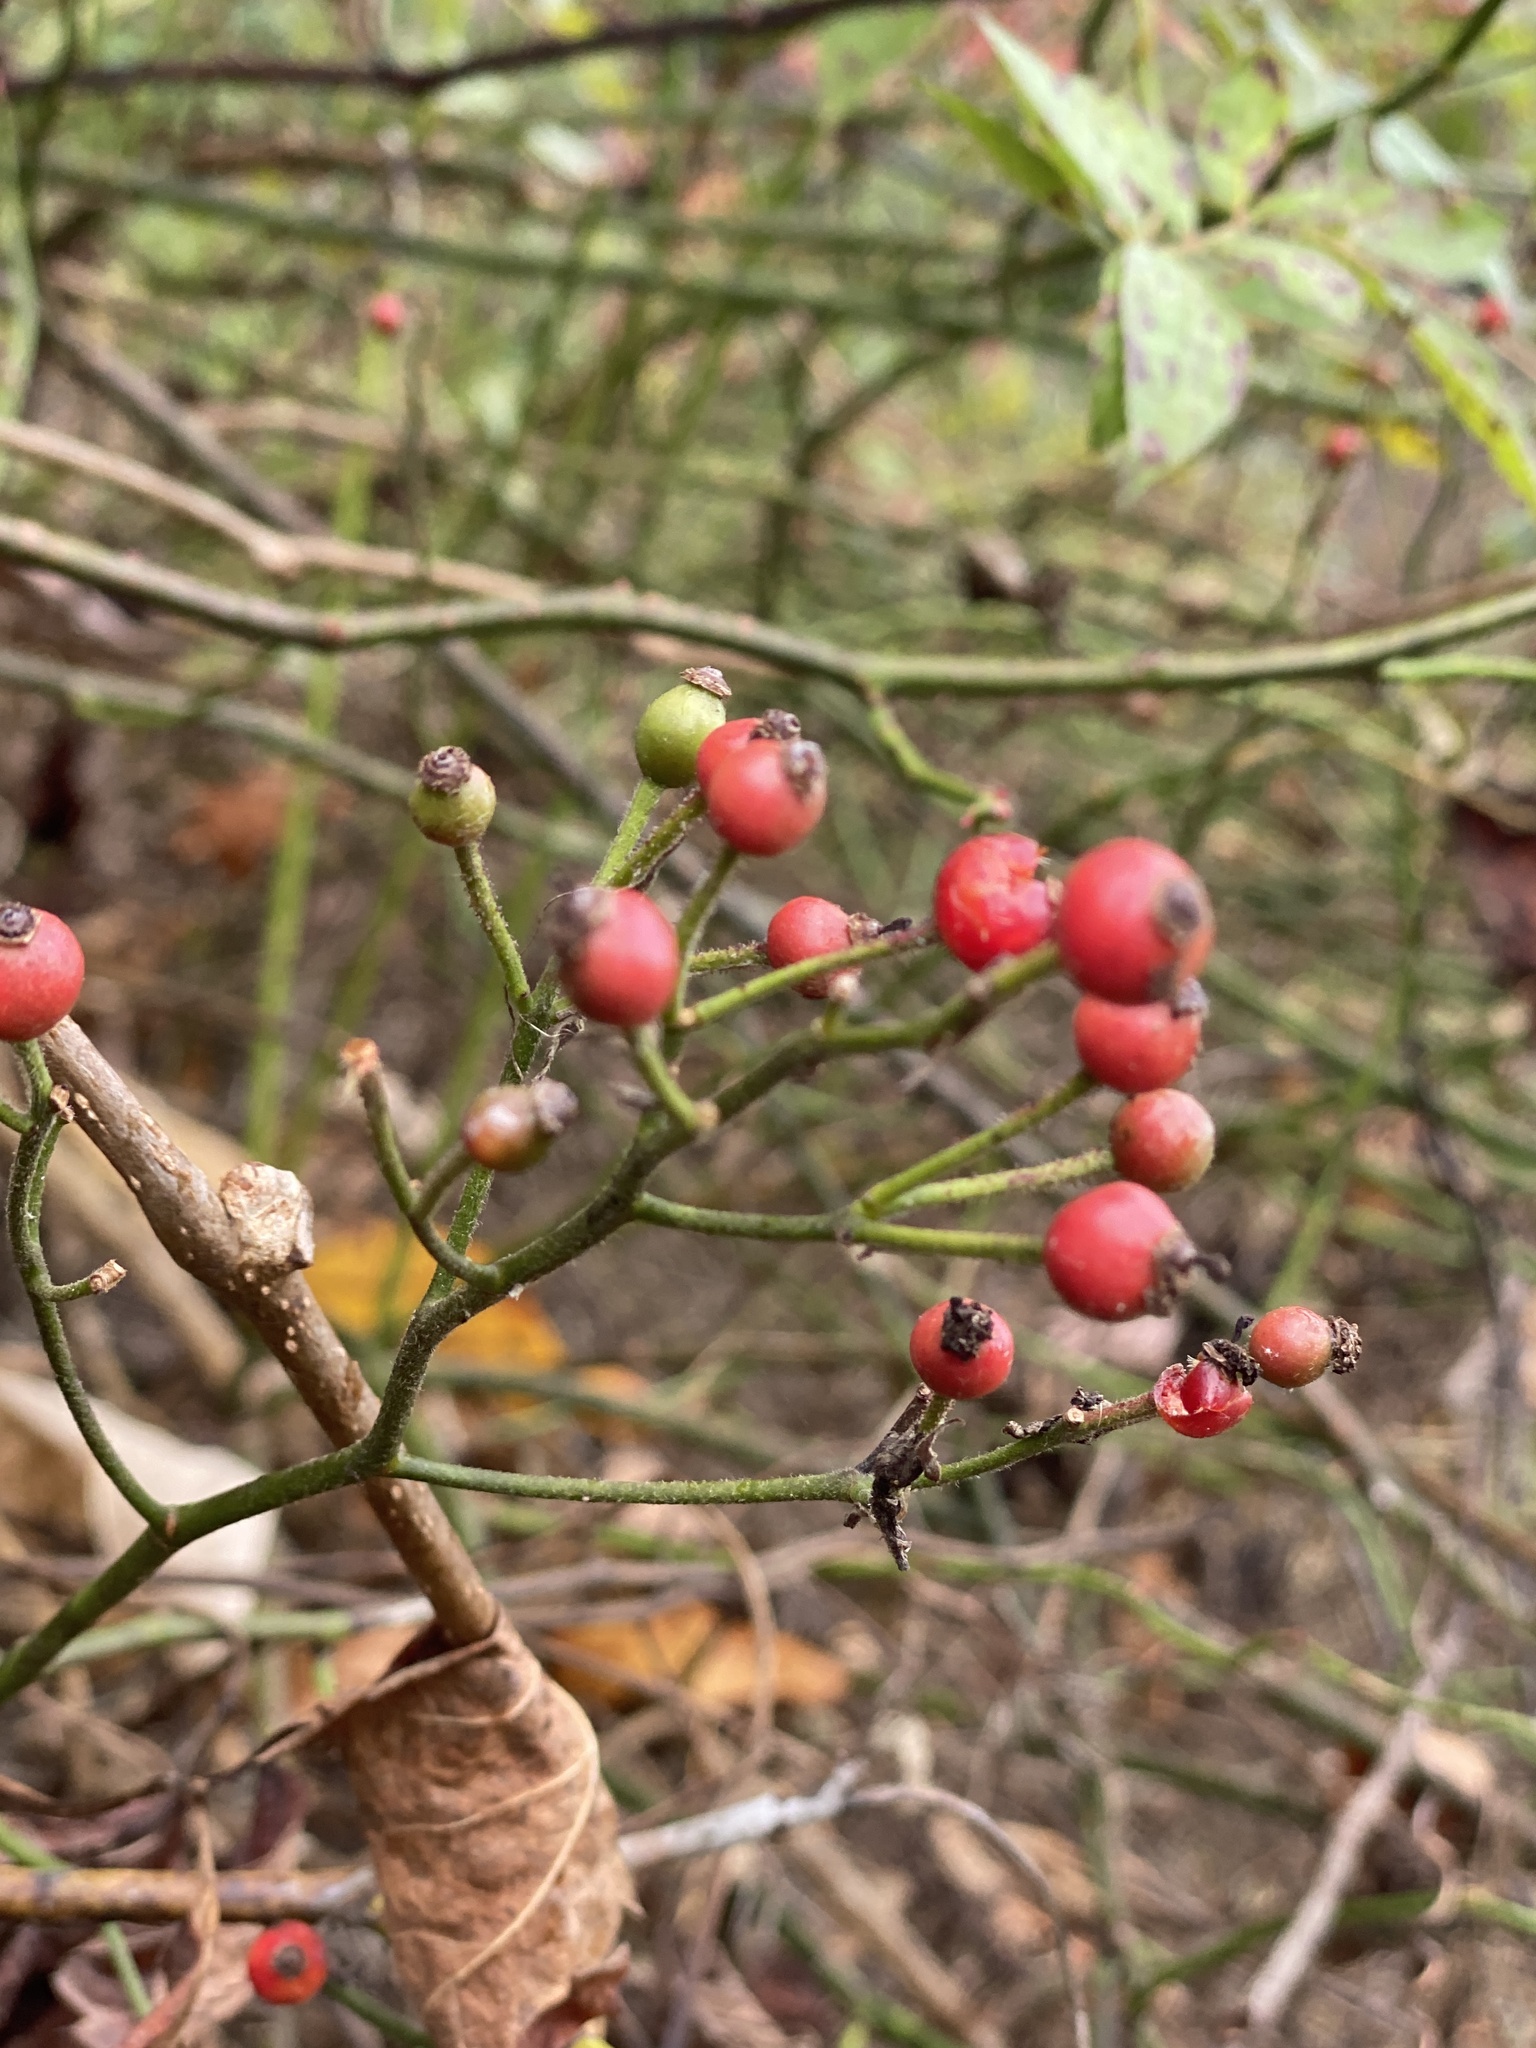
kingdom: Plantae
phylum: Tracheophyta
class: Magnoliopsida
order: Rosales
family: Rosaceae
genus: Rosa
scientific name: Rosa multiflora
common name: Multiflora rose
